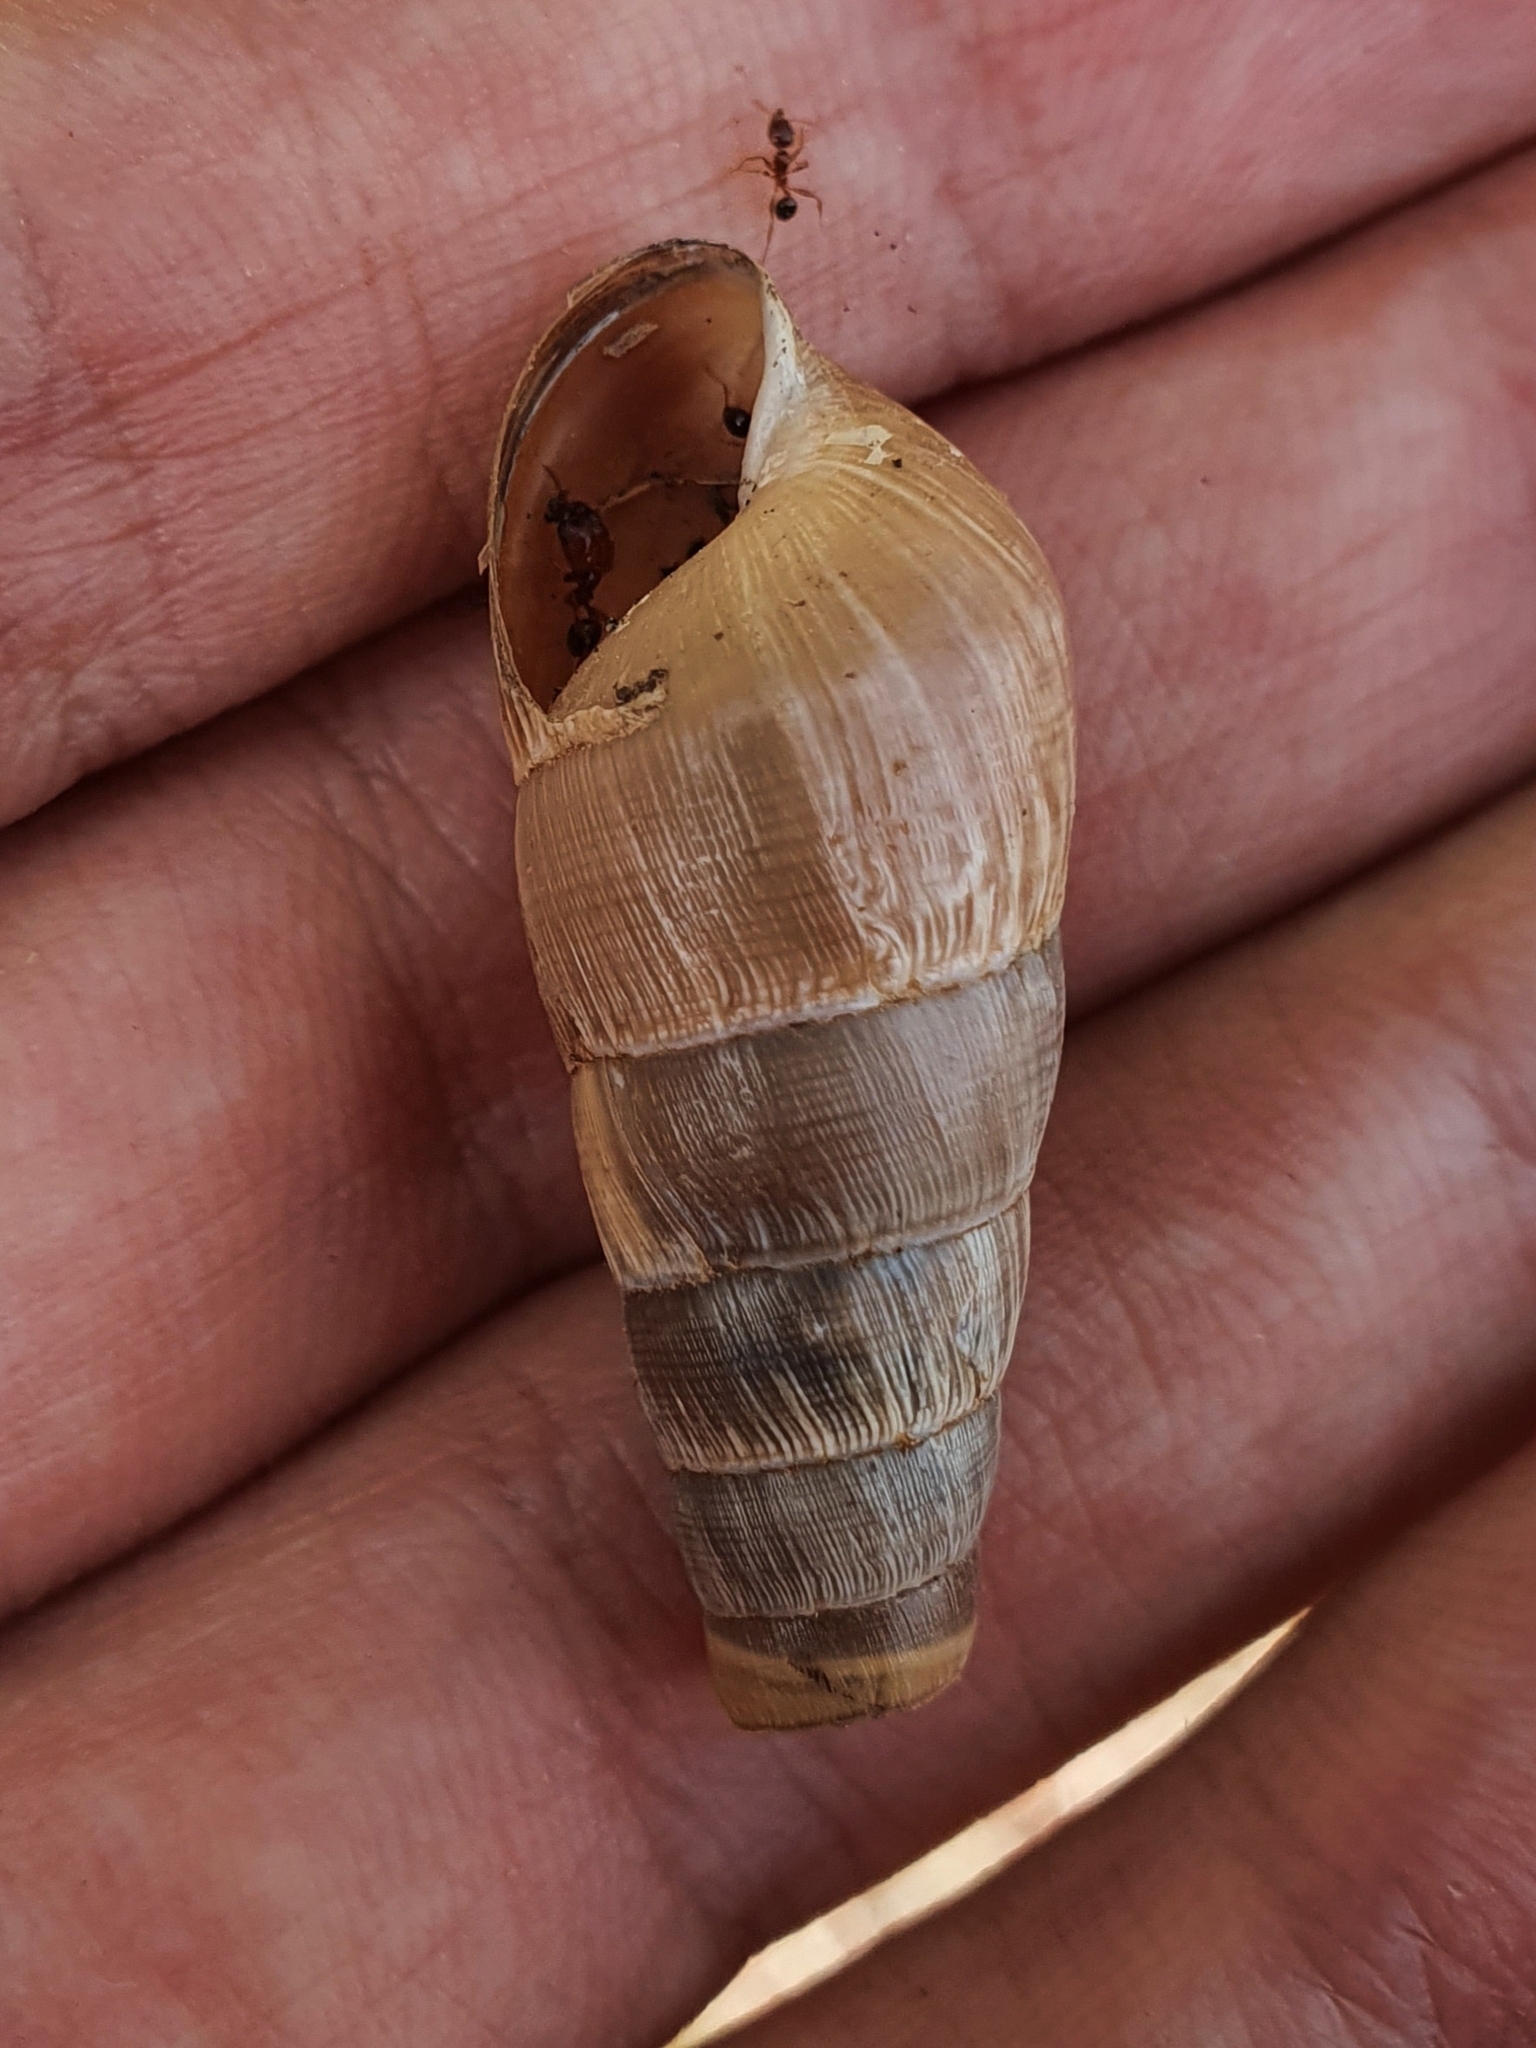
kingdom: Animalia
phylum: Mollusca
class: Gastropoda
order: Stylommatophora
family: Achatinidae
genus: Rumina
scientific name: Rumina decollata
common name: Decollate snail
